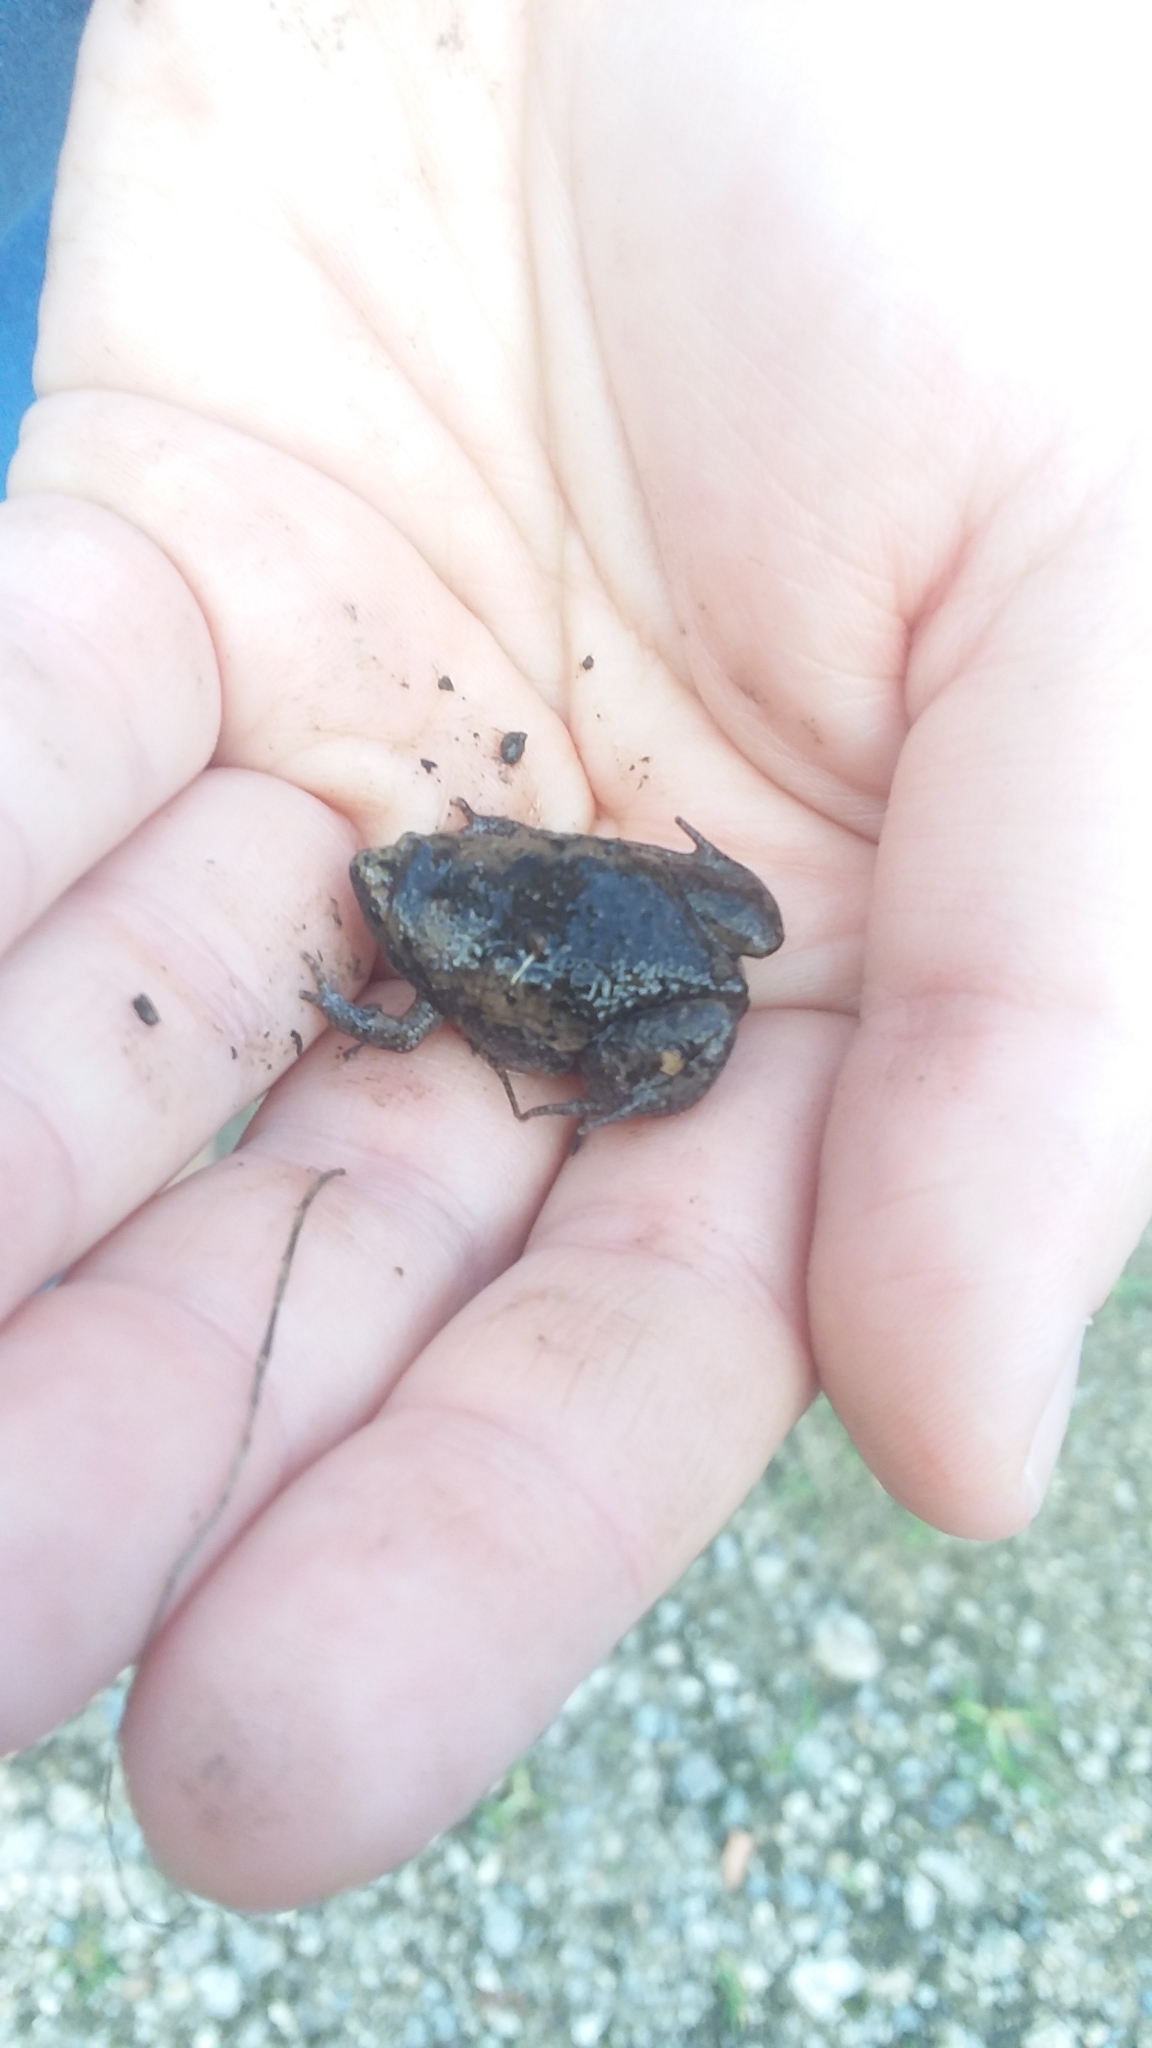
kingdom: Animalia
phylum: Chordata
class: Amphibia
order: Anura
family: Microhylidae
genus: Gastrophryne
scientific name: Gastrophryne carolinensis
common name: Eastern narrowmouth toad
